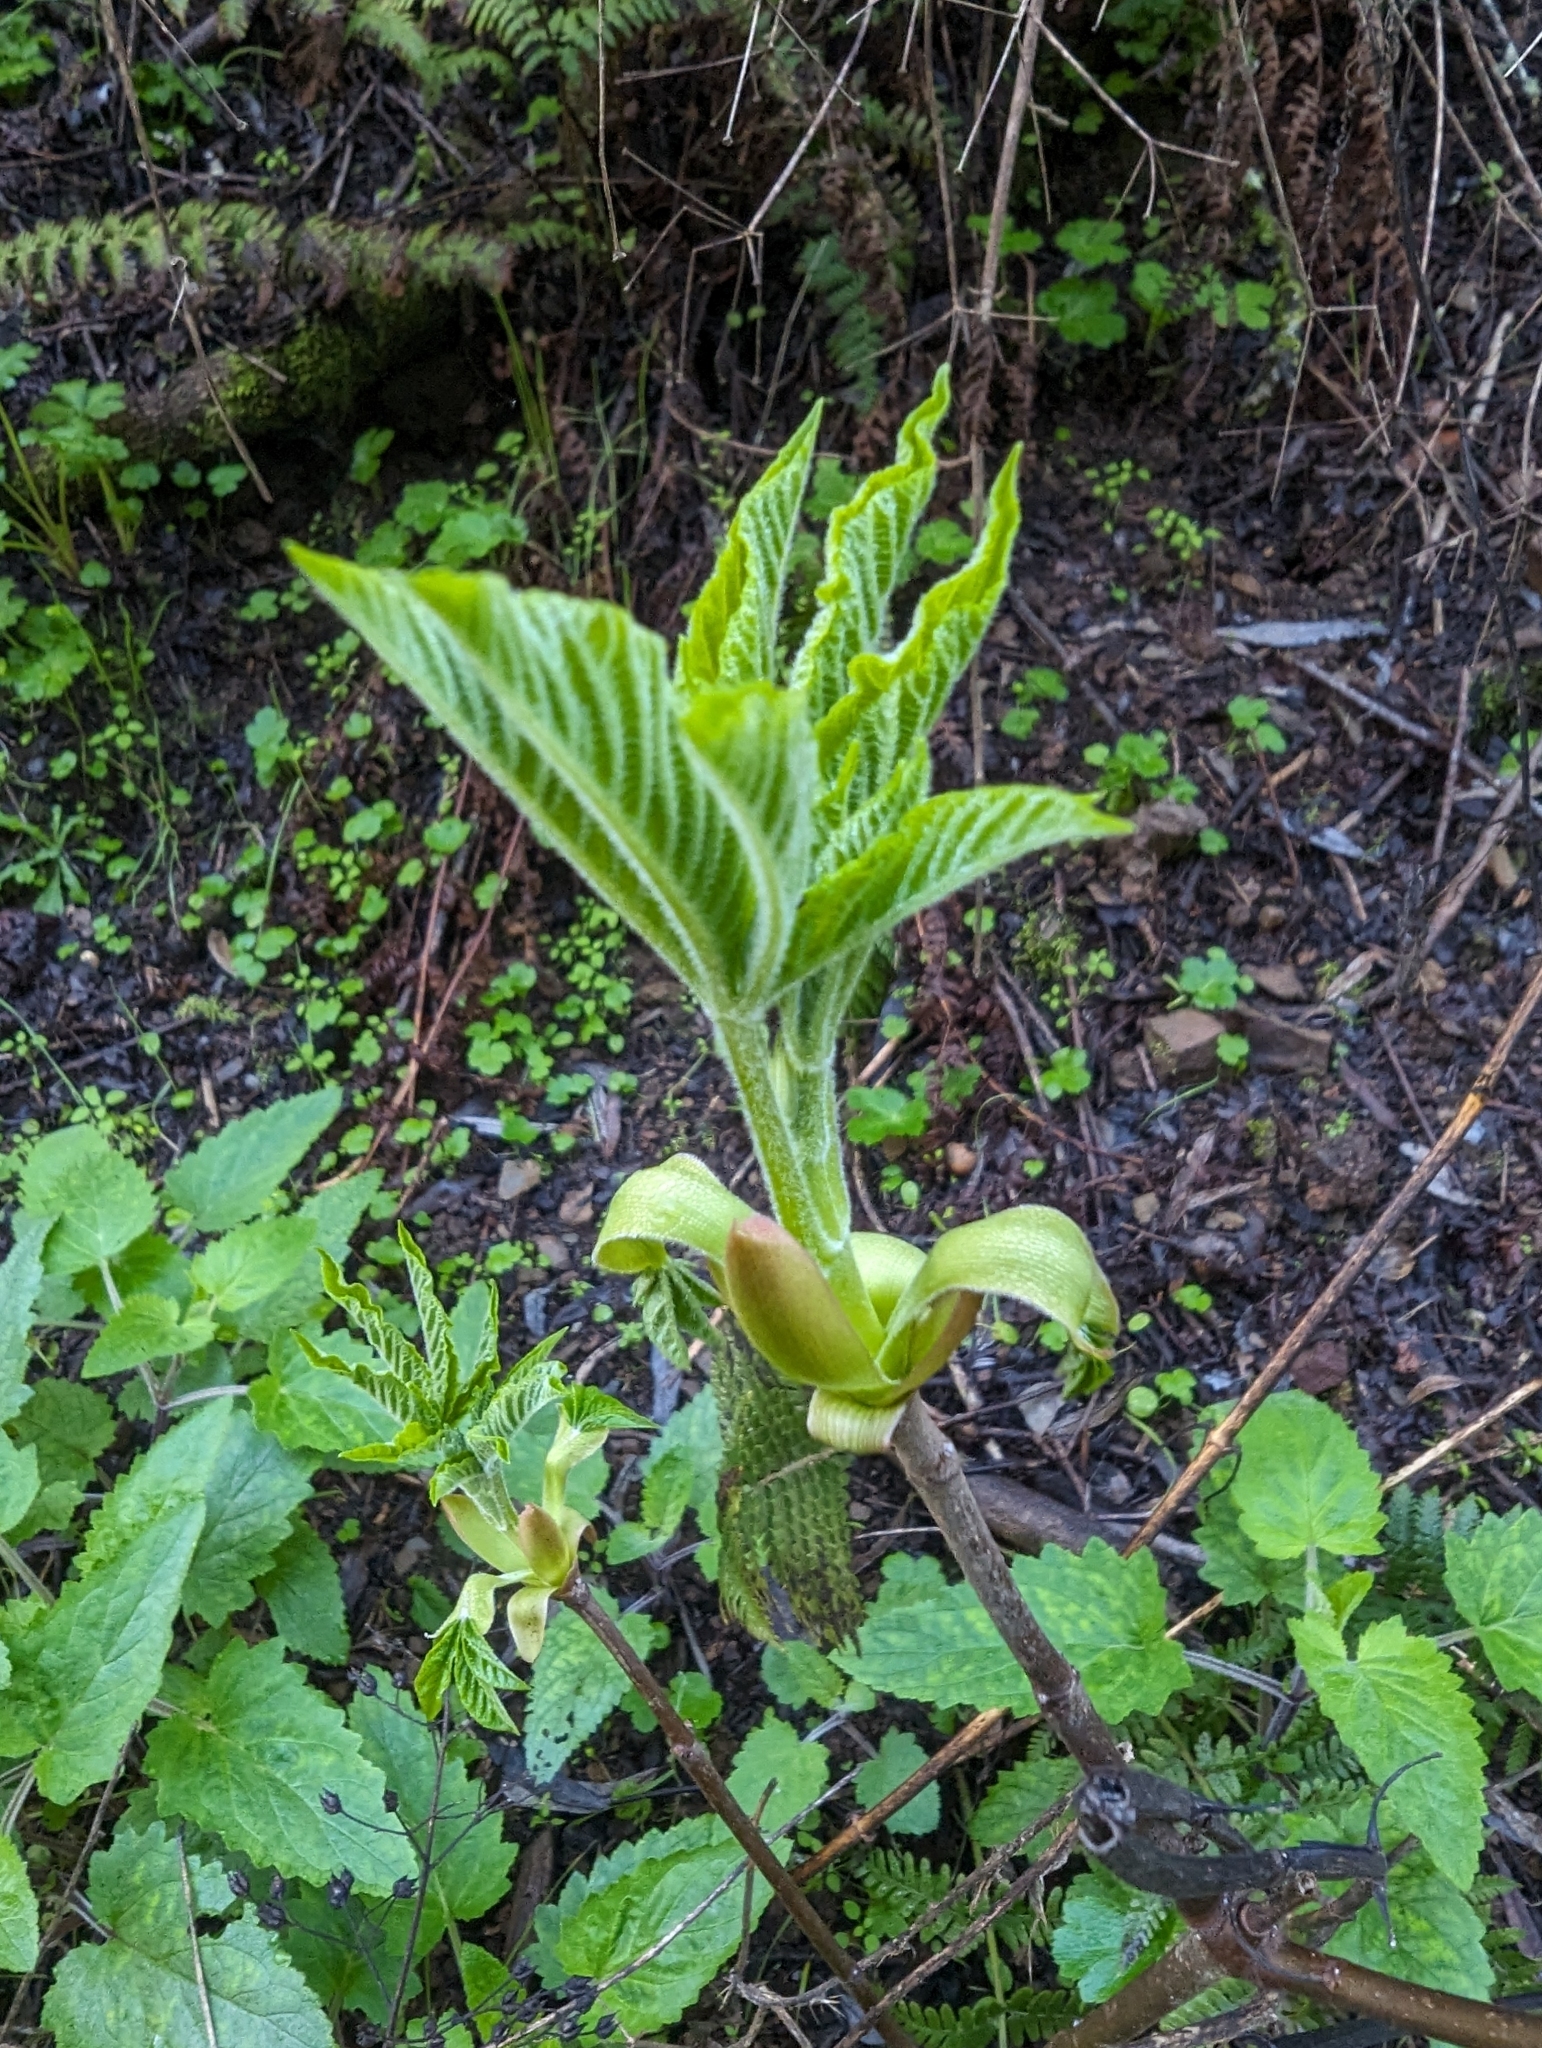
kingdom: Plantae
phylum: Tracheophyta
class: Magnoliopsida
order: Sapindales
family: Sapindaceae
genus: Aesculus
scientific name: Aesculus californica
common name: California buckeye
